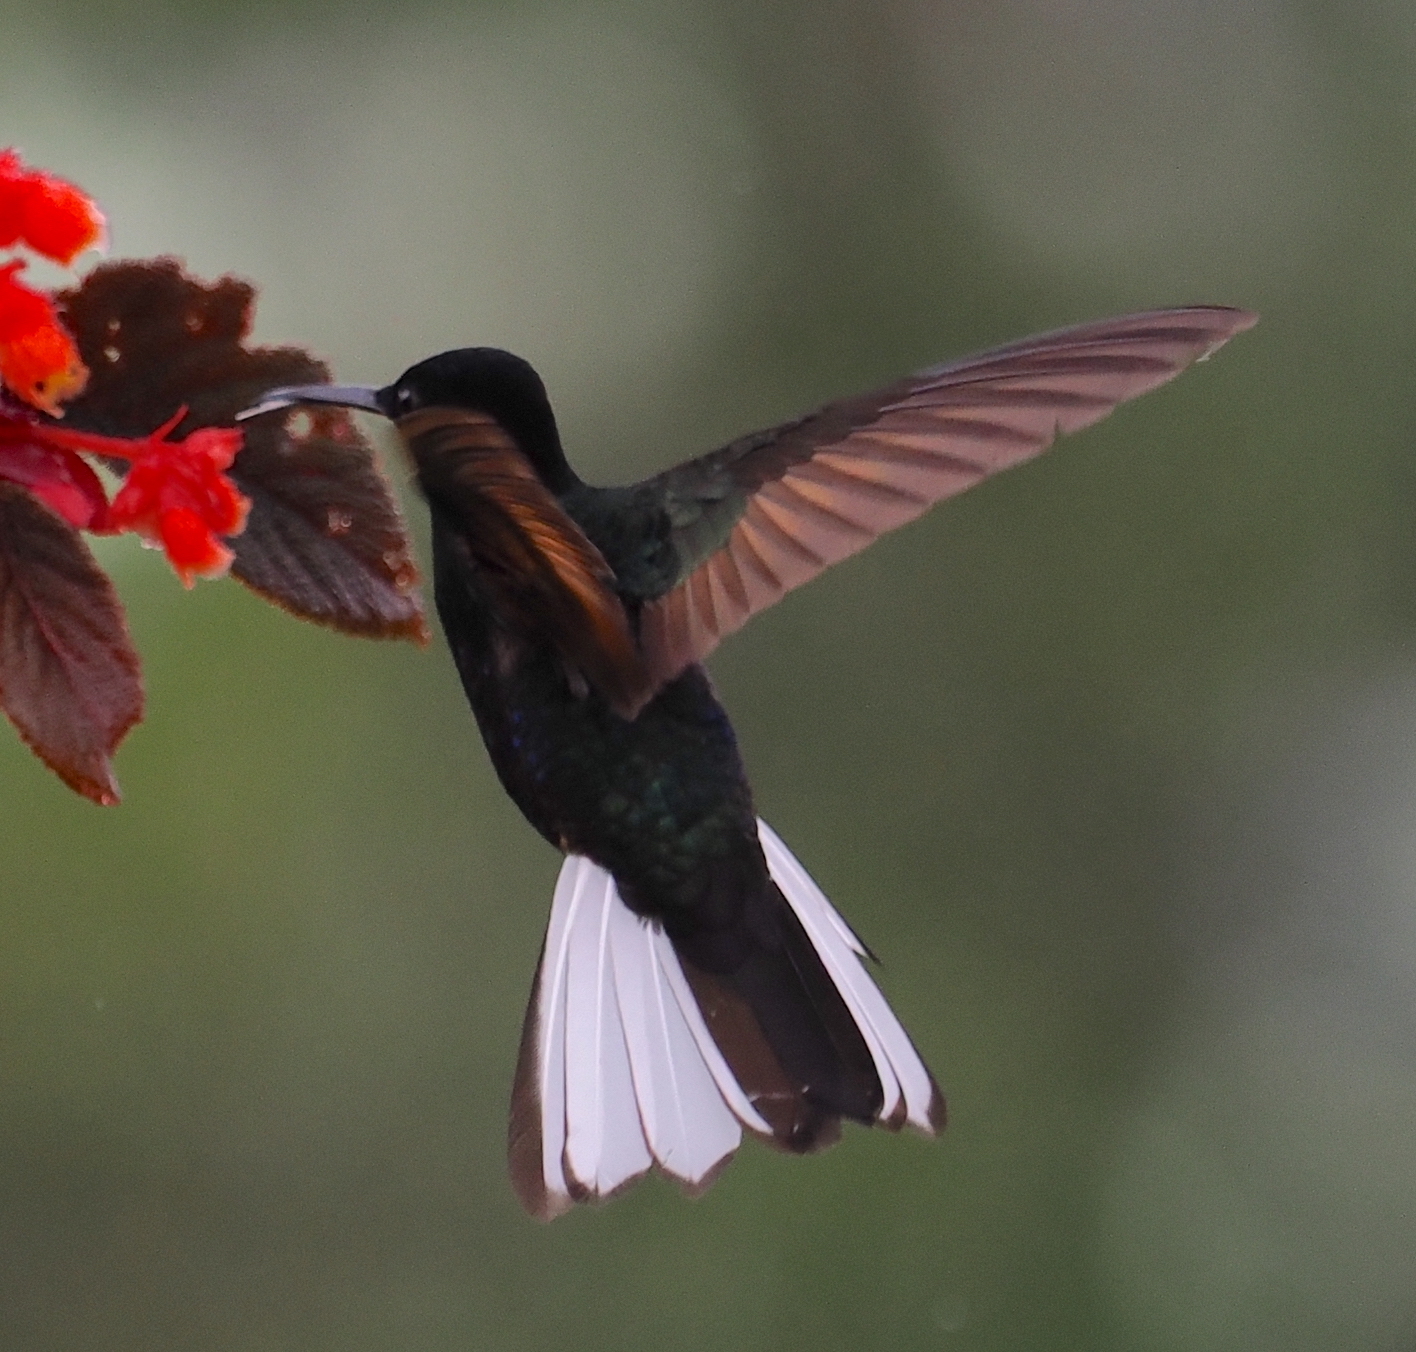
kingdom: Animalia
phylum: Chordata
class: Aves
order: Apodiformes
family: Trochilidae
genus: Boissonneaua
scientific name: Boissonneaua jardini
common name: Velvet-purple coronet
